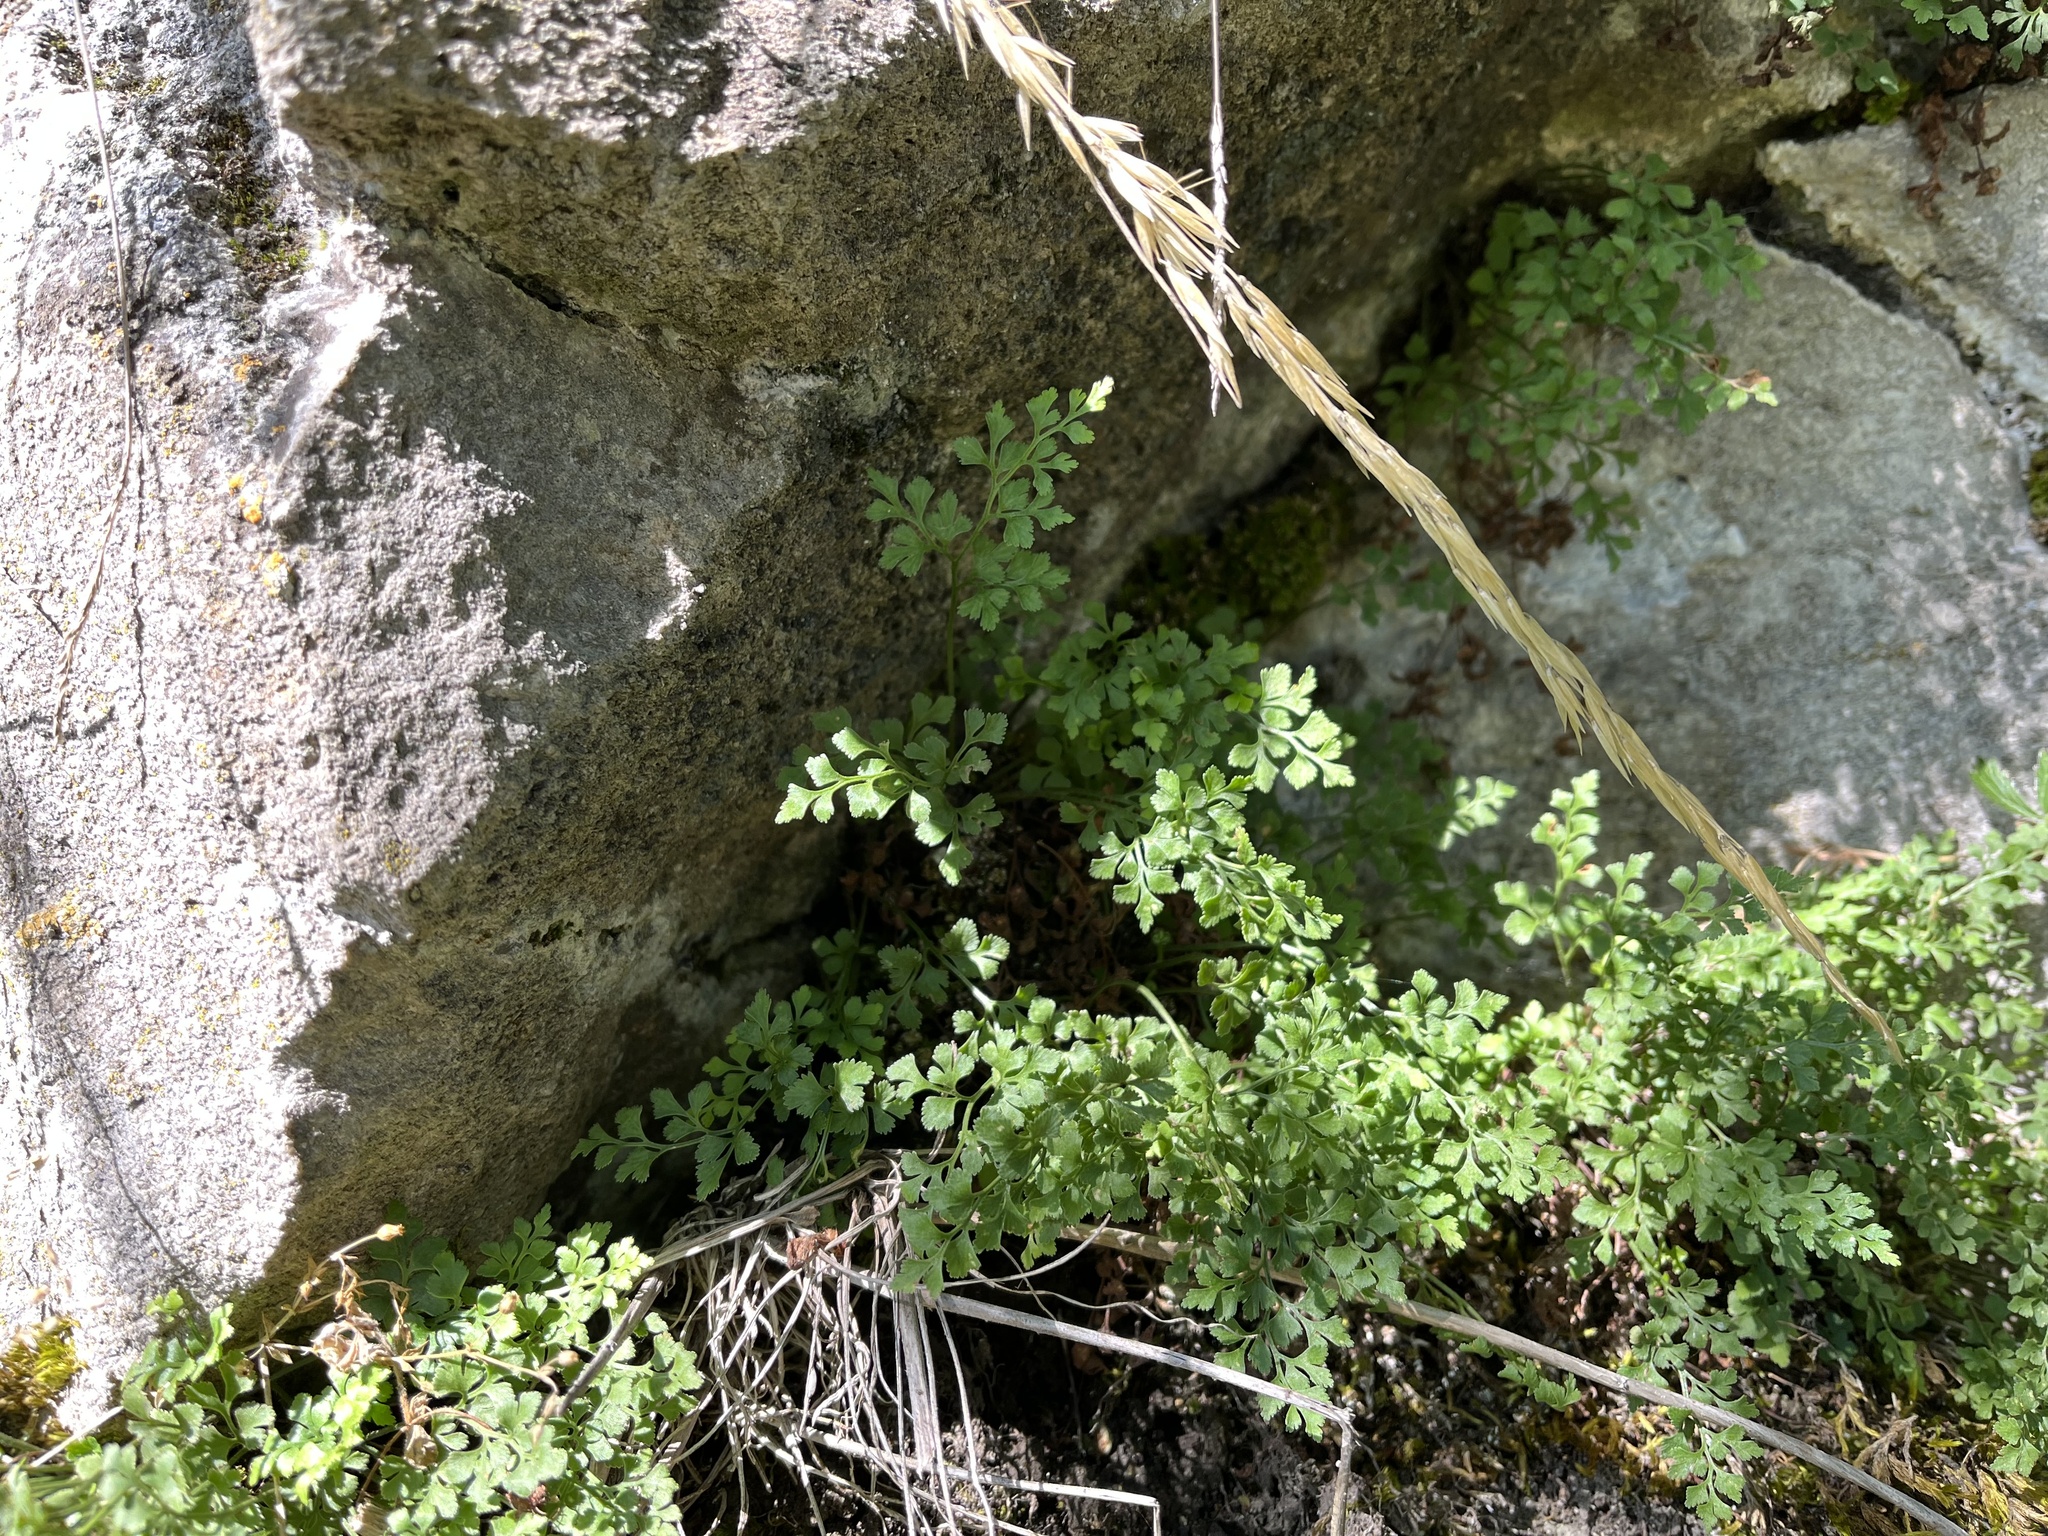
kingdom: Plantae
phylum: Tracheophyta
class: Polypodiopsida
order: Polypodiales
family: Aspleniaceae
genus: Asplenium
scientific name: Asplenium ruta-muraria
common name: Wall-rue
